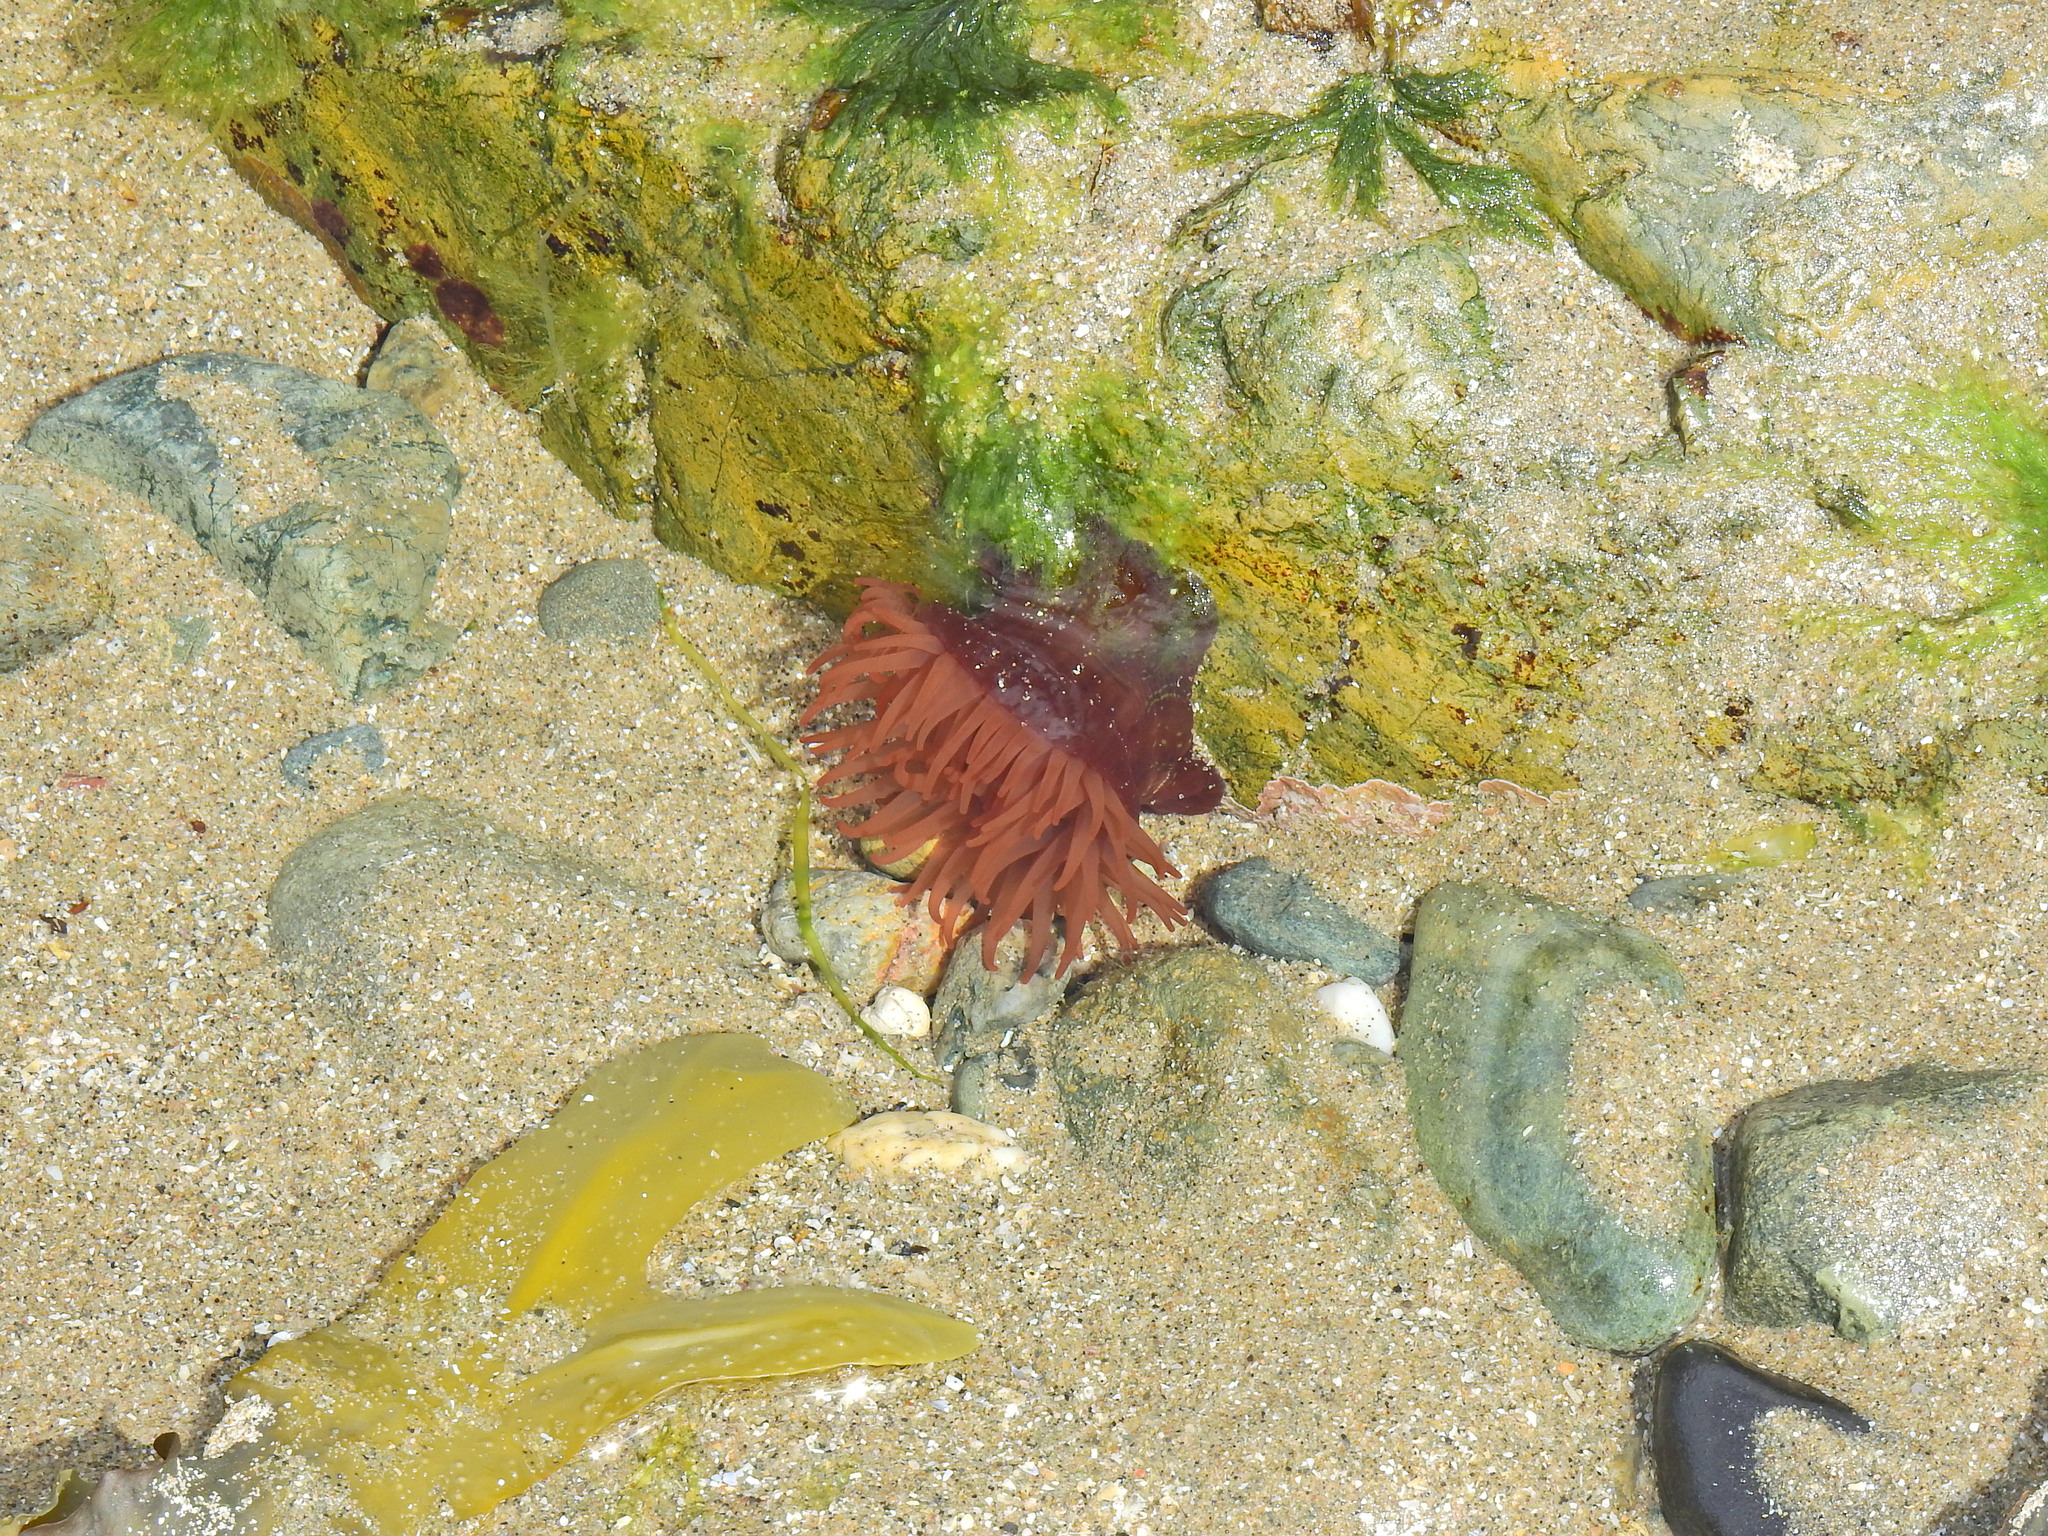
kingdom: Animalia
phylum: Cnidaria
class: Anthozoa
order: Actiniaria
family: Actiniidae
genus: Actinia
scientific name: Actinia equina
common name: Beadlet anemone
